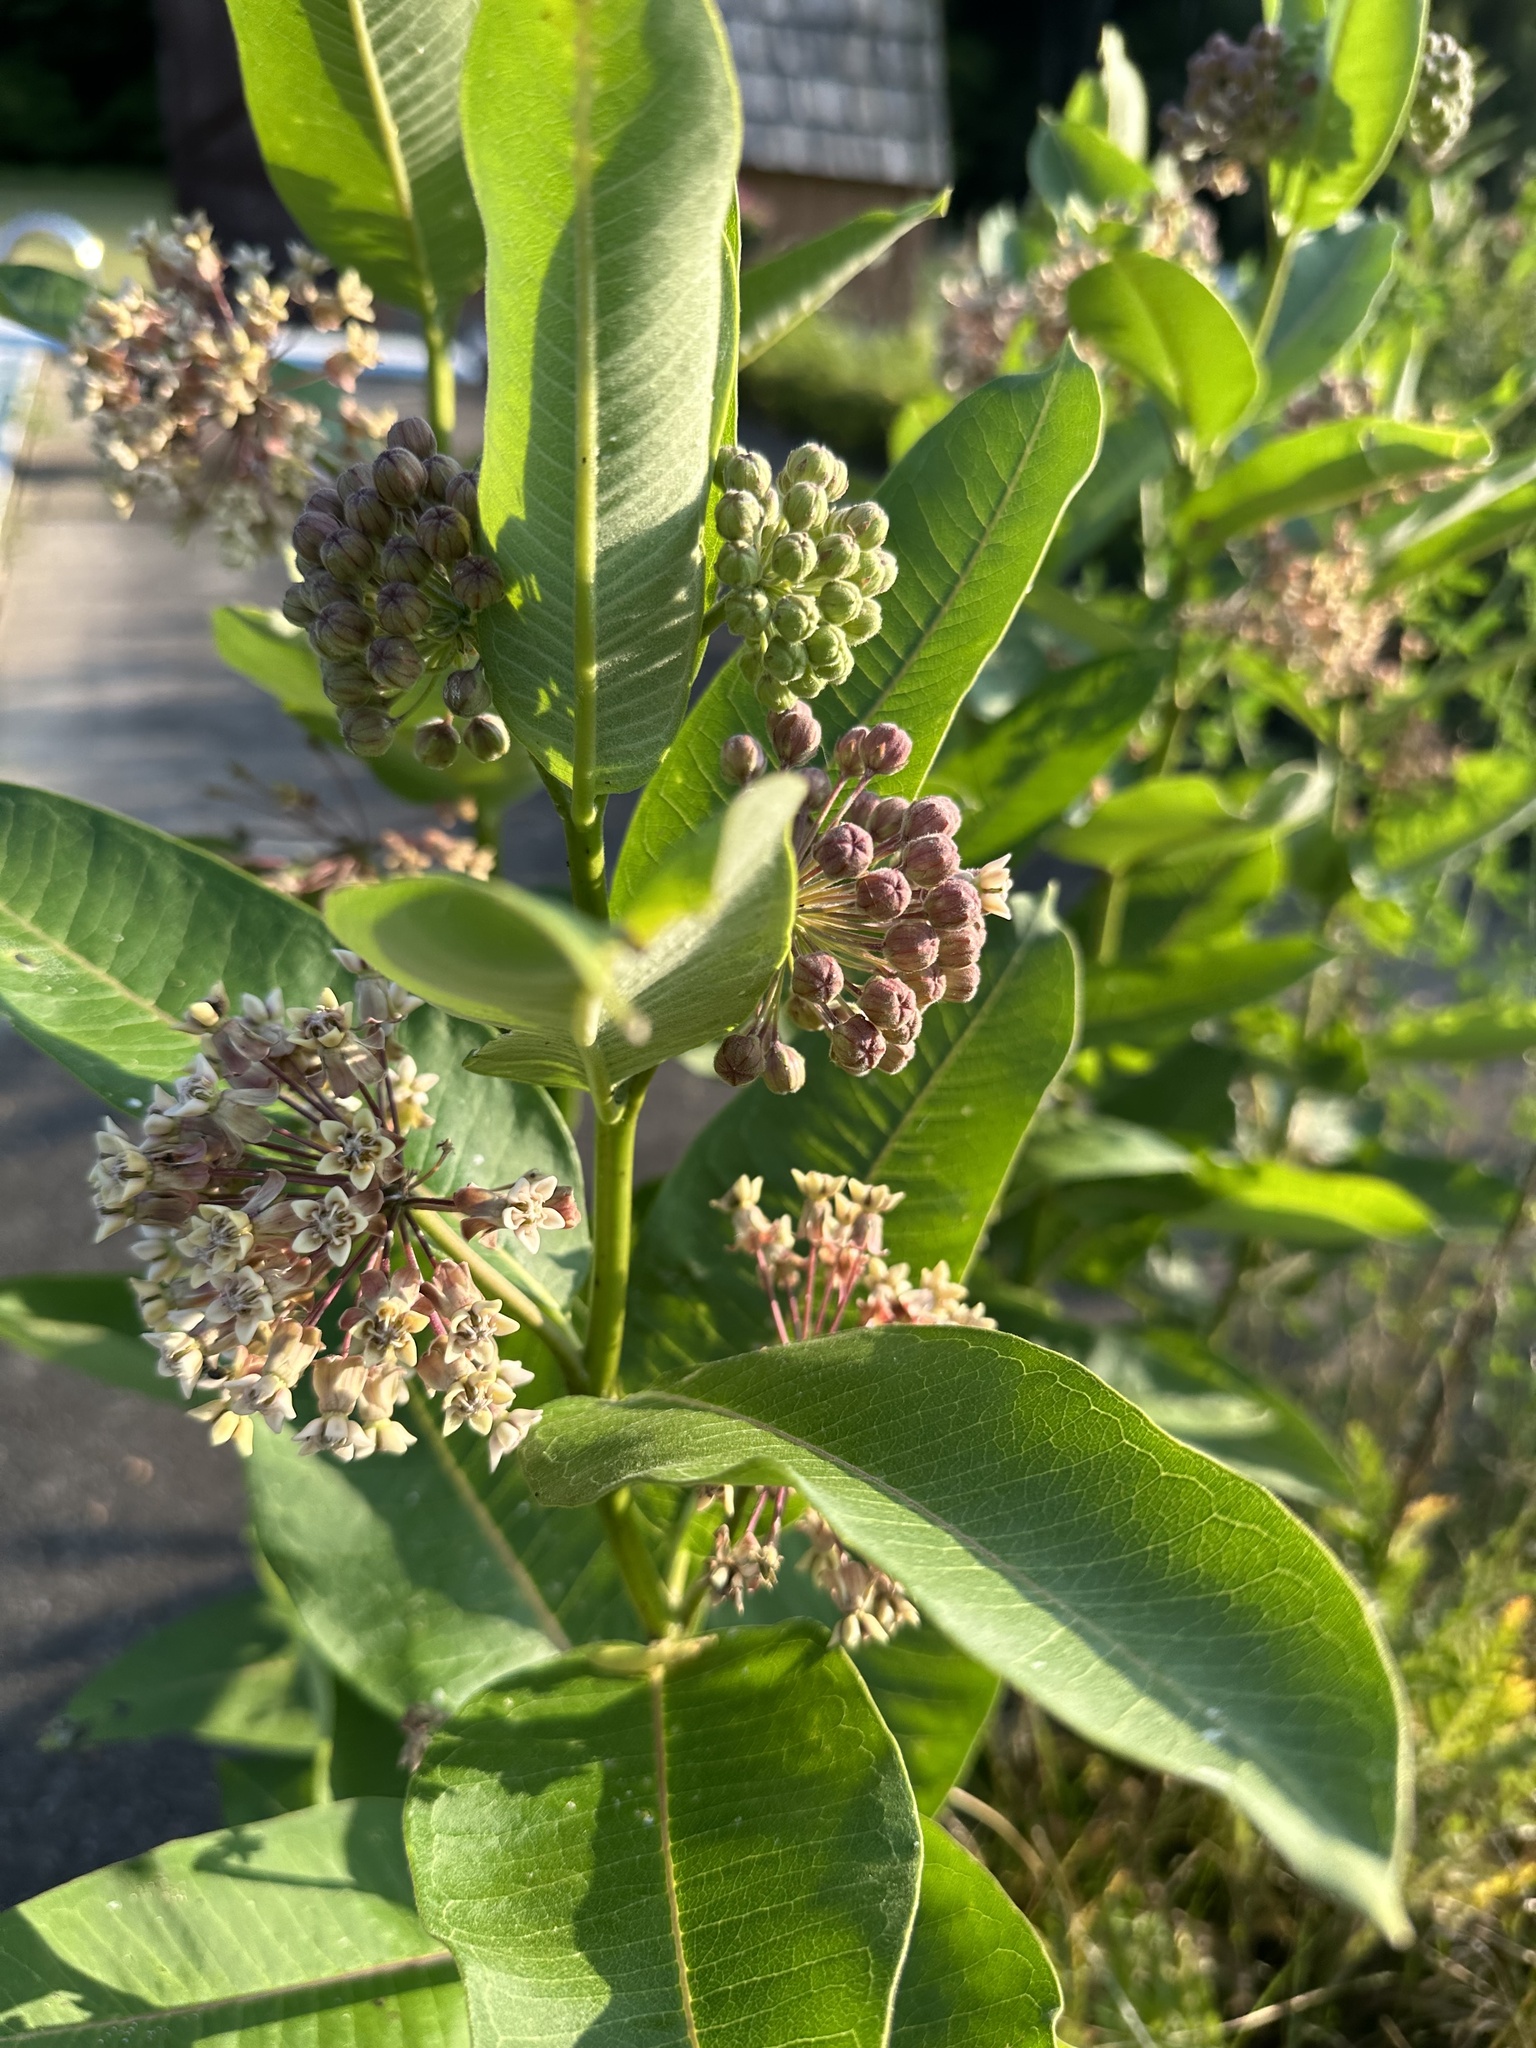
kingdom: Plantae
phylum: Tracheophyta
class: Magnoliopsida
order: Gentianales
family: Apocynaceae
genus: Asclepias
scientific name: Asclepias syriaca
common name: Common milkweed
